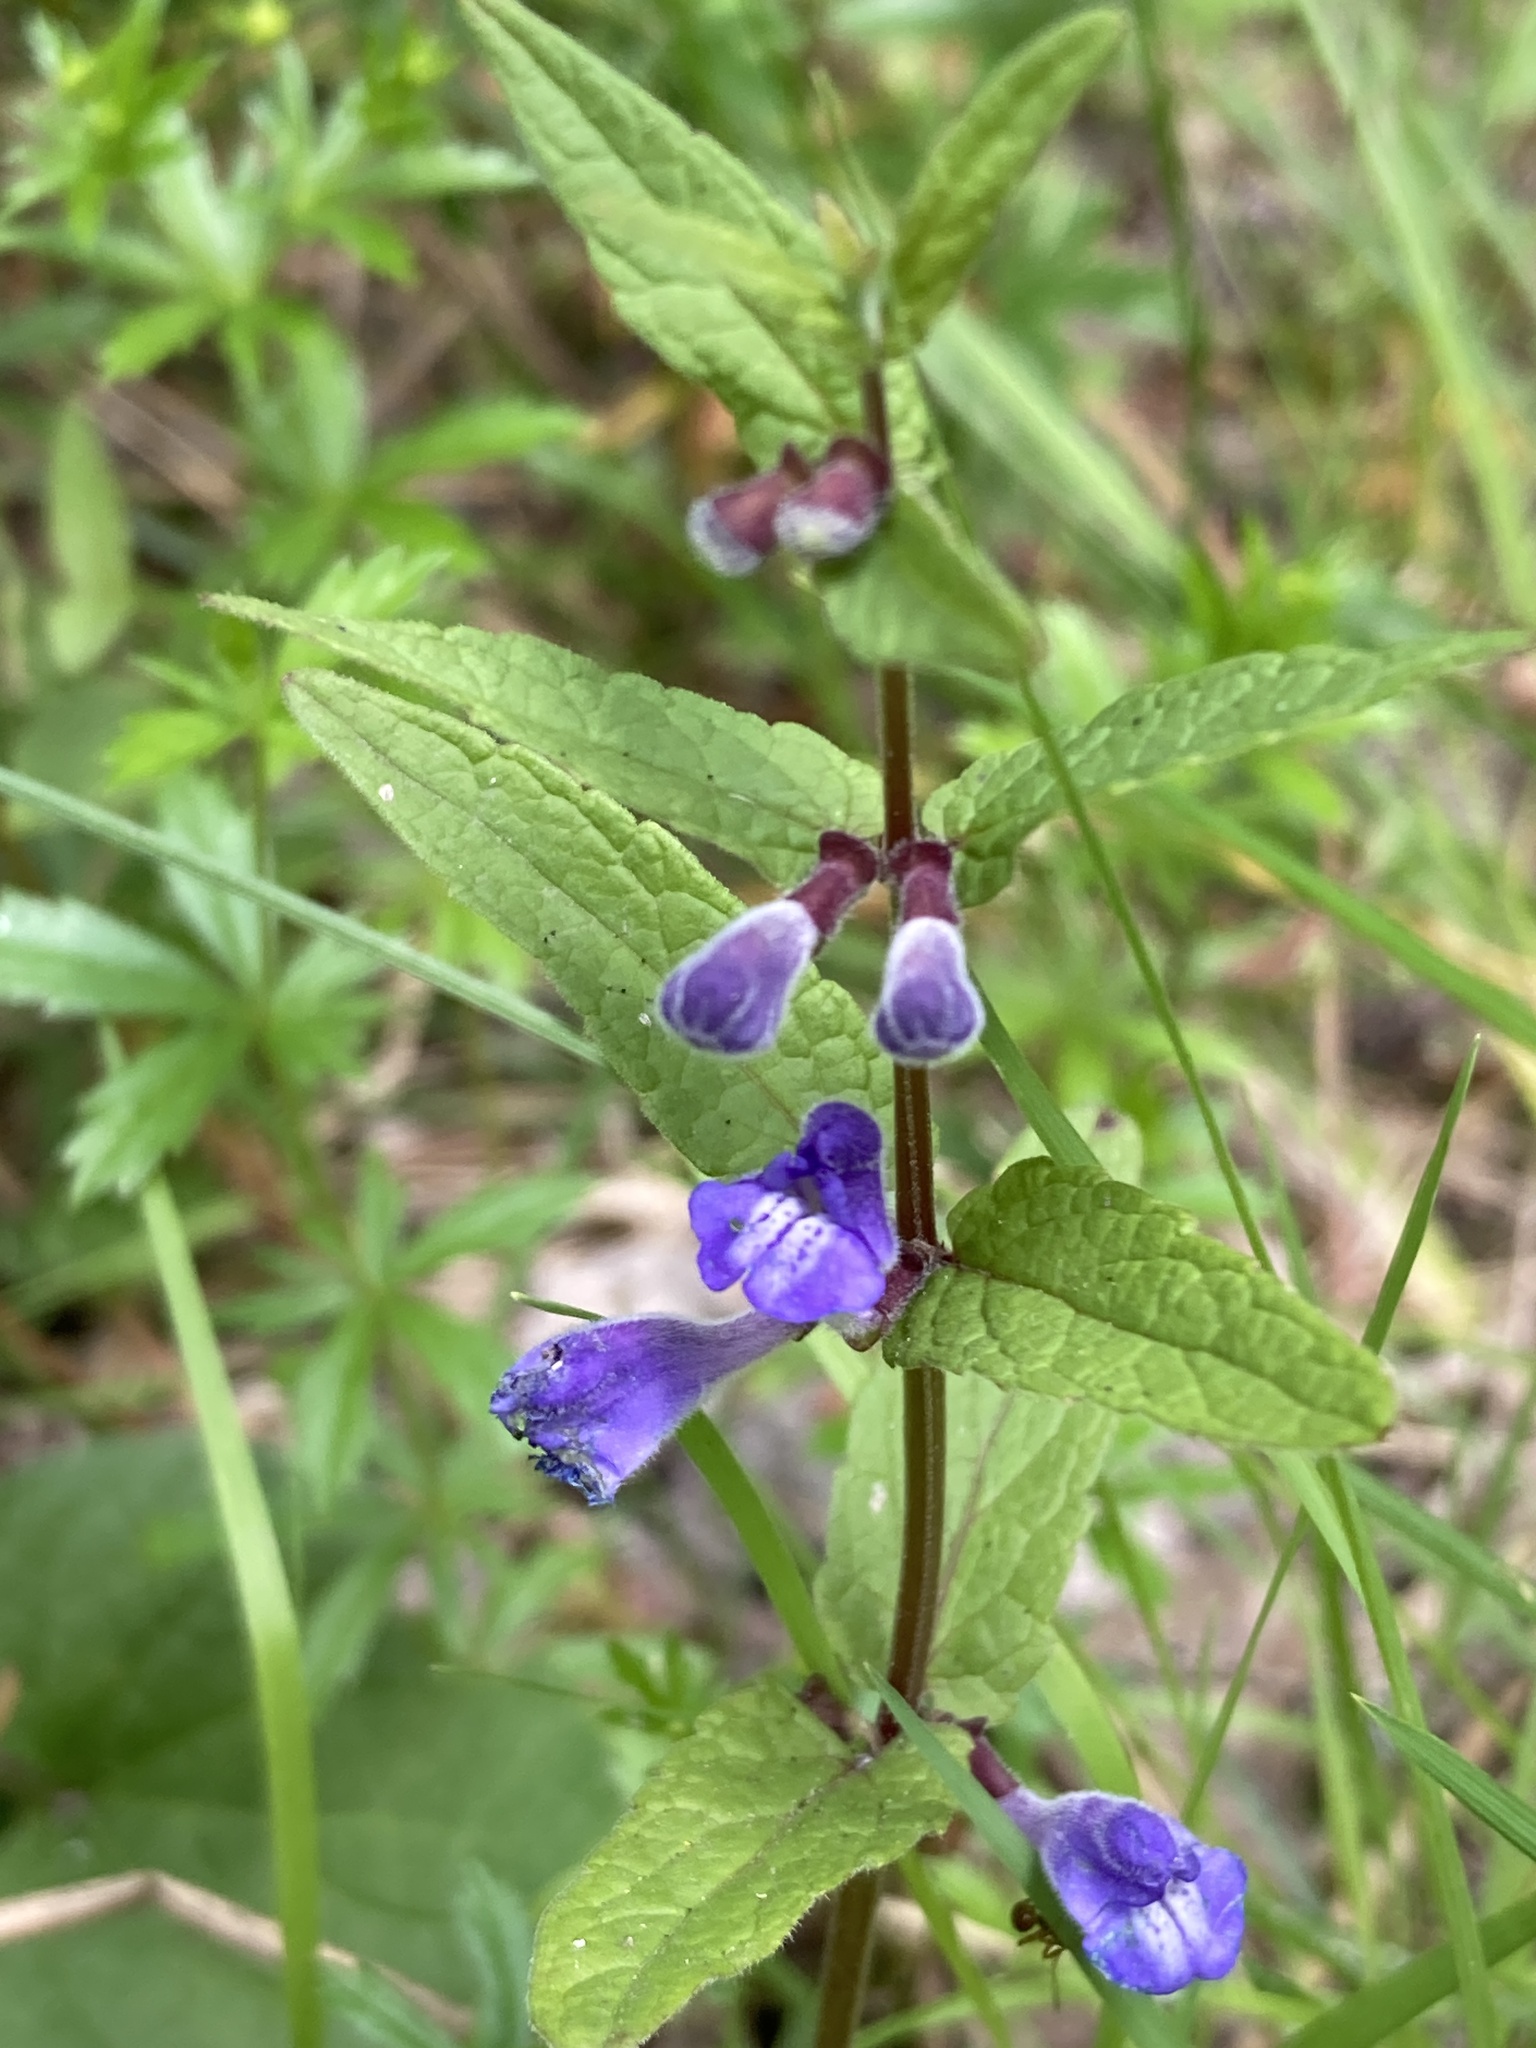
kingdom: Plantae
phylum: Tracheophyta
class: Magnoliopsida
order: Lamiales
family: Lamiaceae
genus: Scutellaria
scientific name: Scutellaria galericulata
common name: Skullcap
